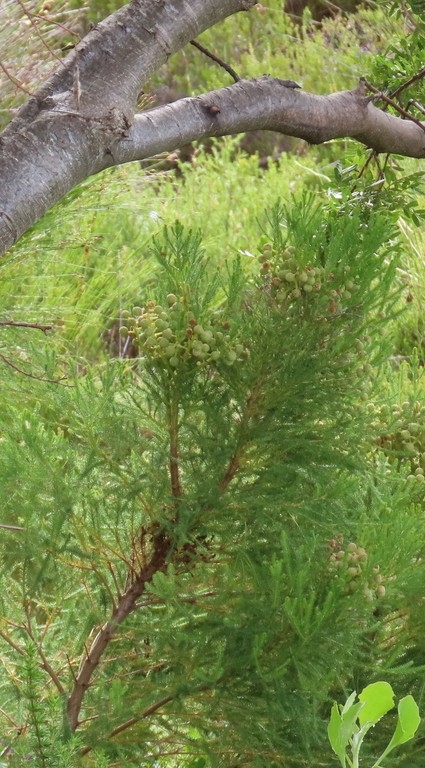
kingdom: Plantae
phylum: Tracheophyta
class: Magnoliopsida
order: Bruniales
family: Bruniaceae
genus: Berzelia
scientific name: Berzelia lanuginosa
